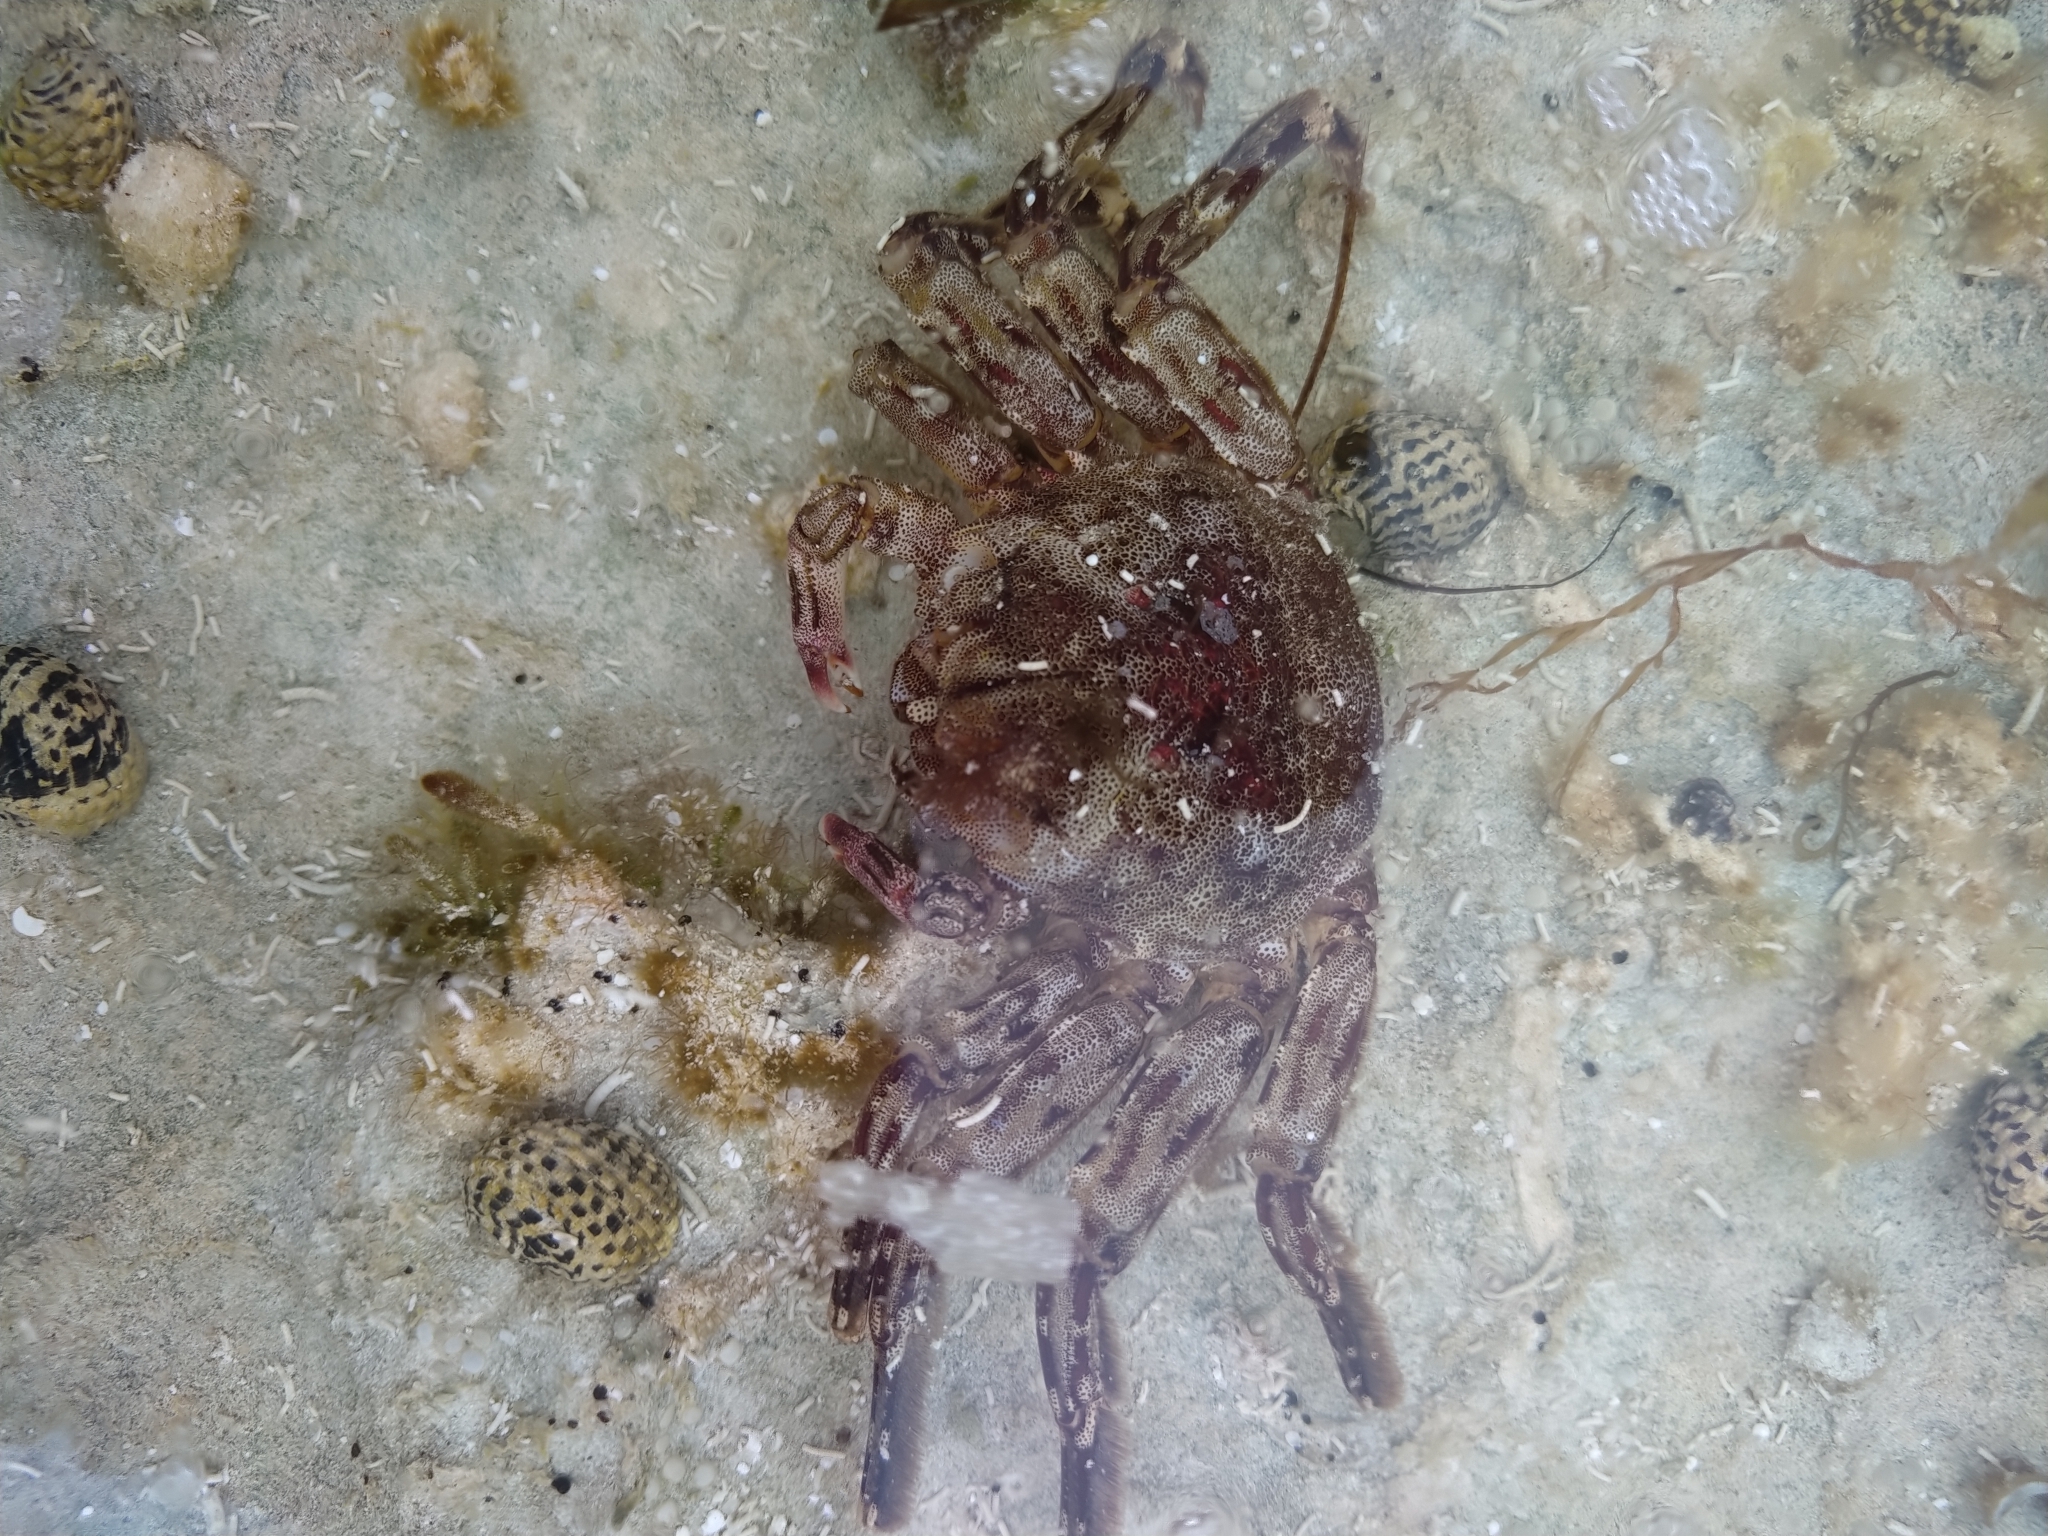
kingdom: Animalia
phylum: Arthropoda
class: Malacostraca
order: Decapoda
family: Plagusiidae
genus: Plagusia
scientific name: Plagusia depressa
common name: Flattened crab
